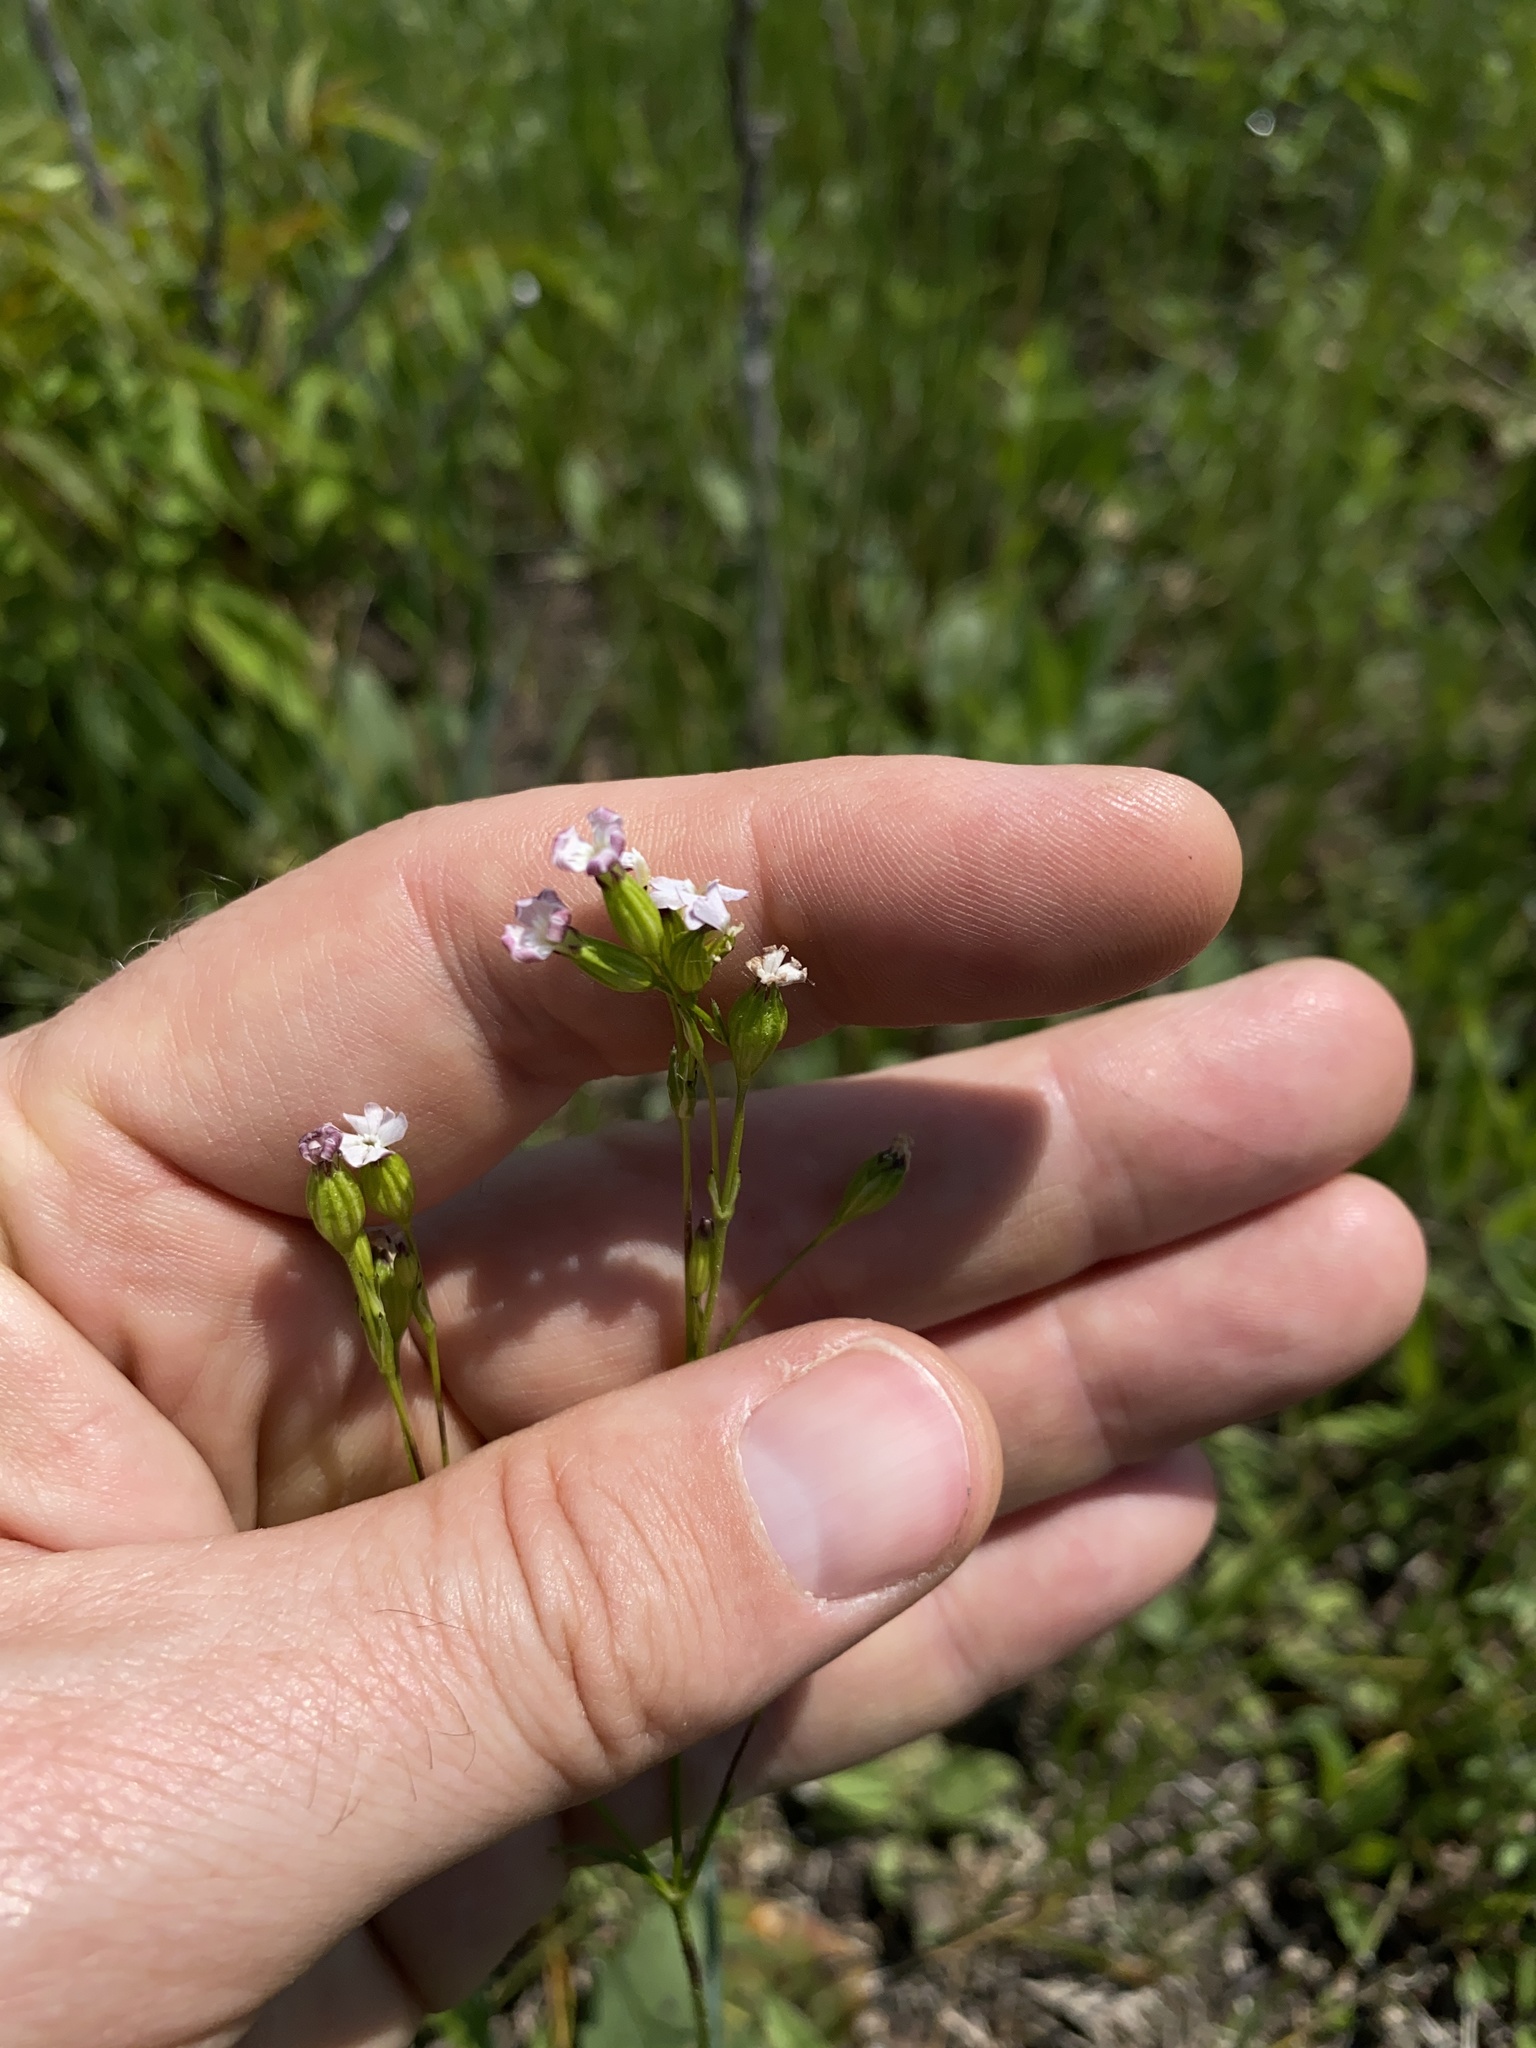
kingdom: Plantae
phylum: Tracheophyta
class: Magnoliopsida
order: Caryophyllales
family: Caryophyllaceae
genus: Silene
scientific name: Silene antirrhina
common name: Sleepy catchfly
